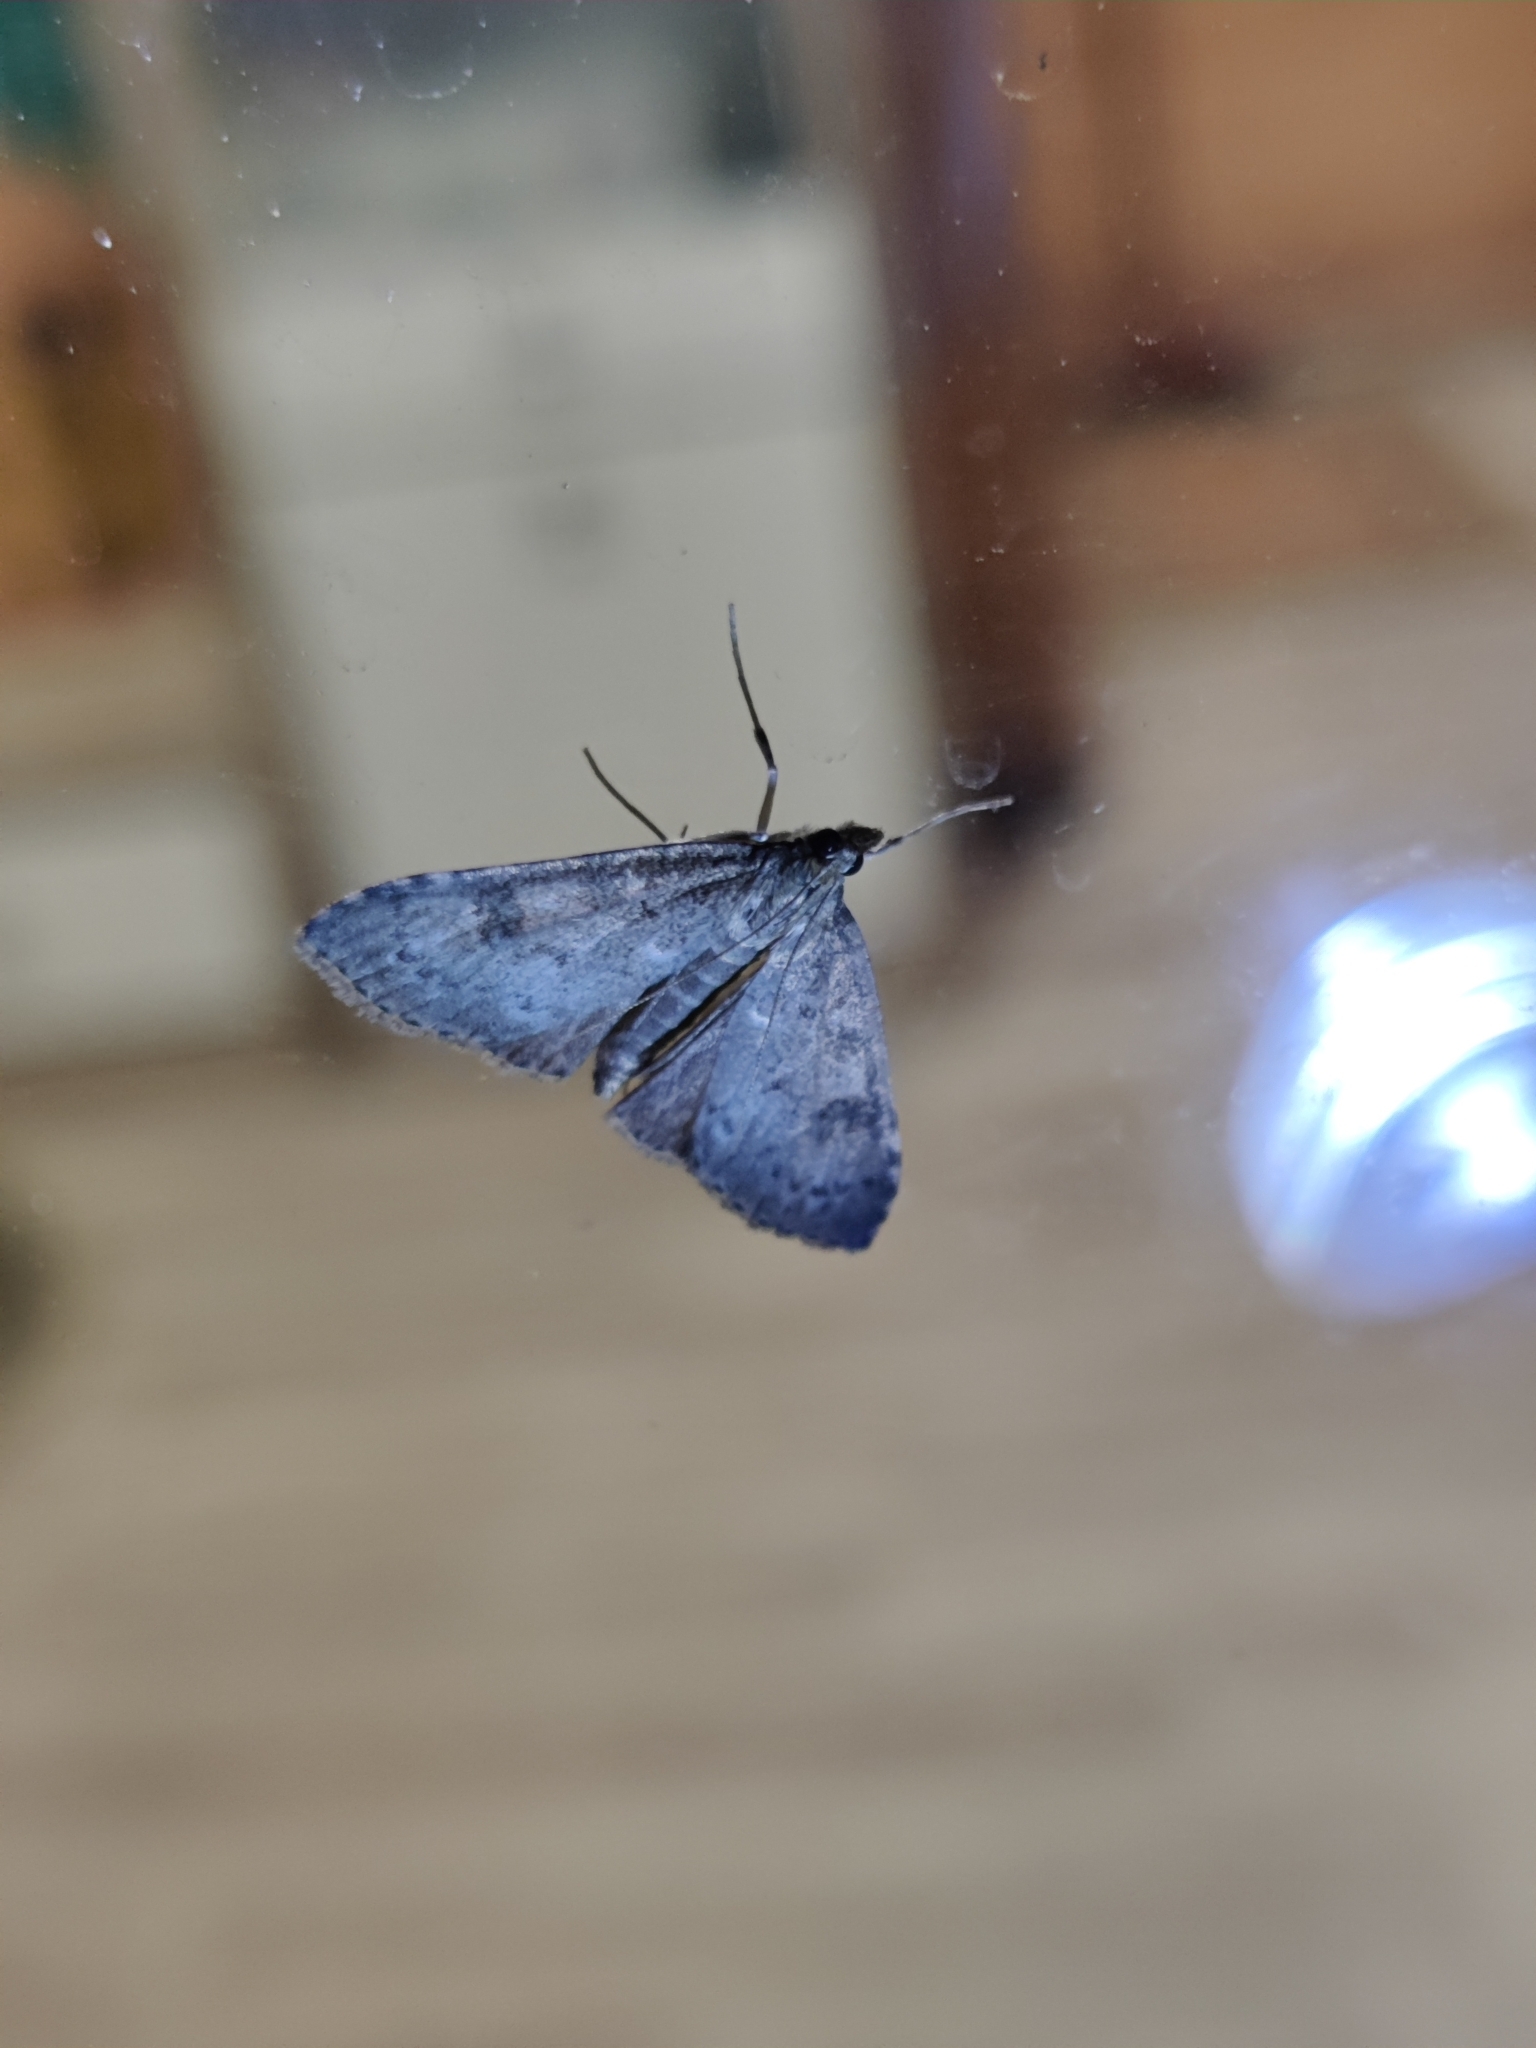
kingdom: Animalia
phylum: Arthropoda
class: Insecta
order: Lepidoptera
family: Crambidae
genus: Udea
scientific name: Udea prunalis
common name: Dusky pearl
